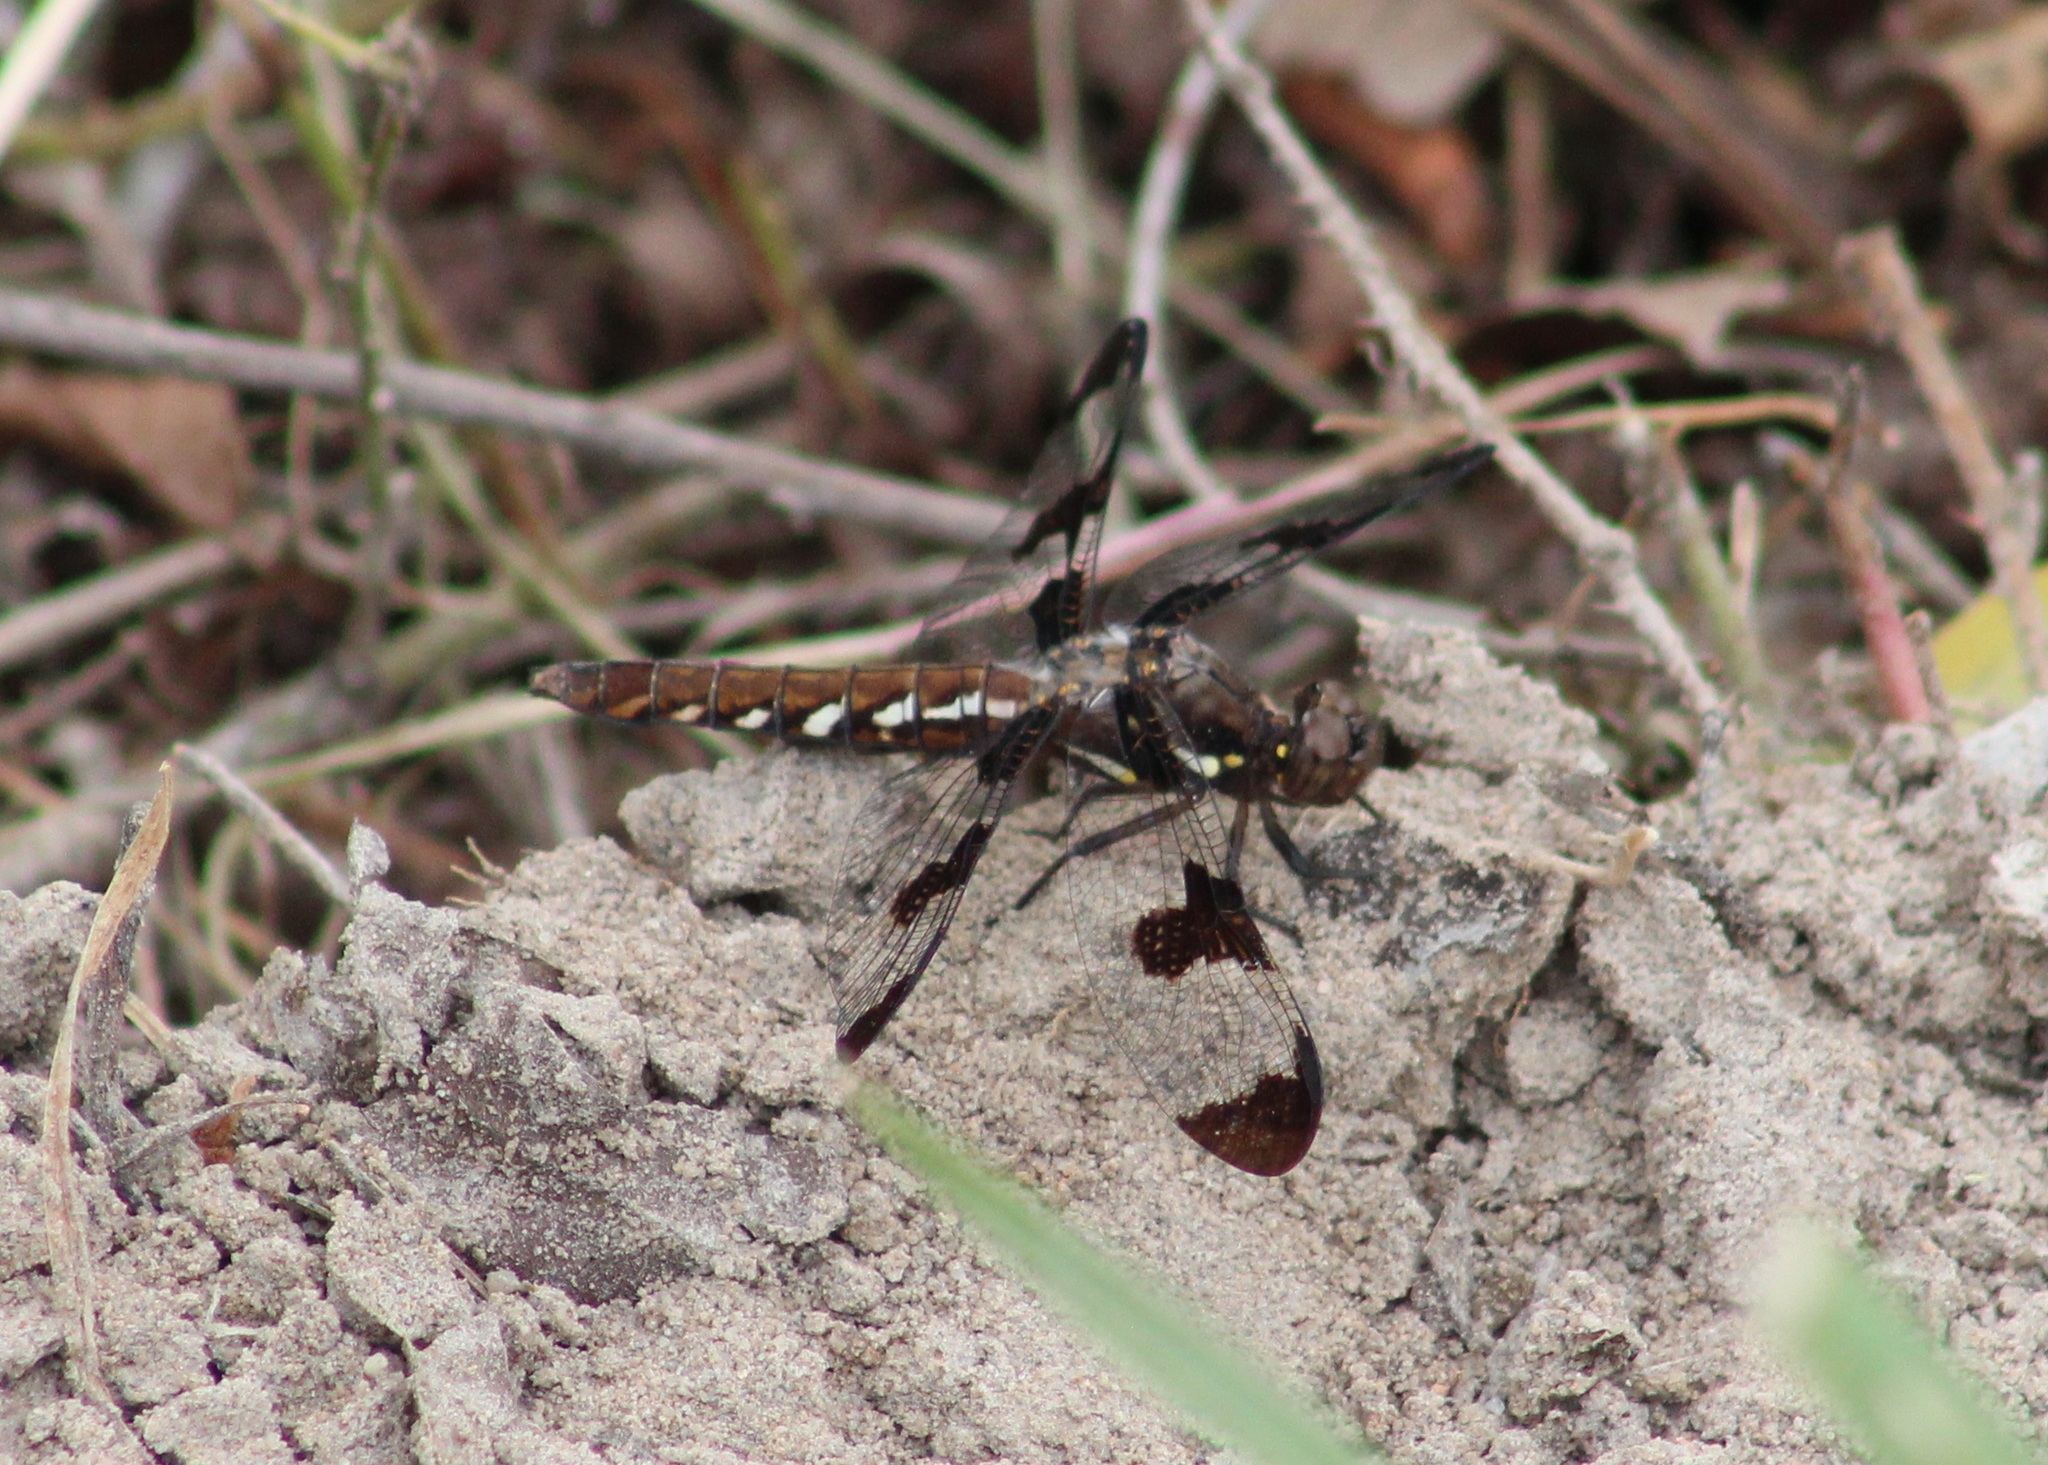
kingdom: Animalia
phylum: Arthropoda
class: Insecta
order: Odonata
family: Libellulidae
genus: Plathemis
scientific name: Plathemis lydia
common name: Common whitetail
